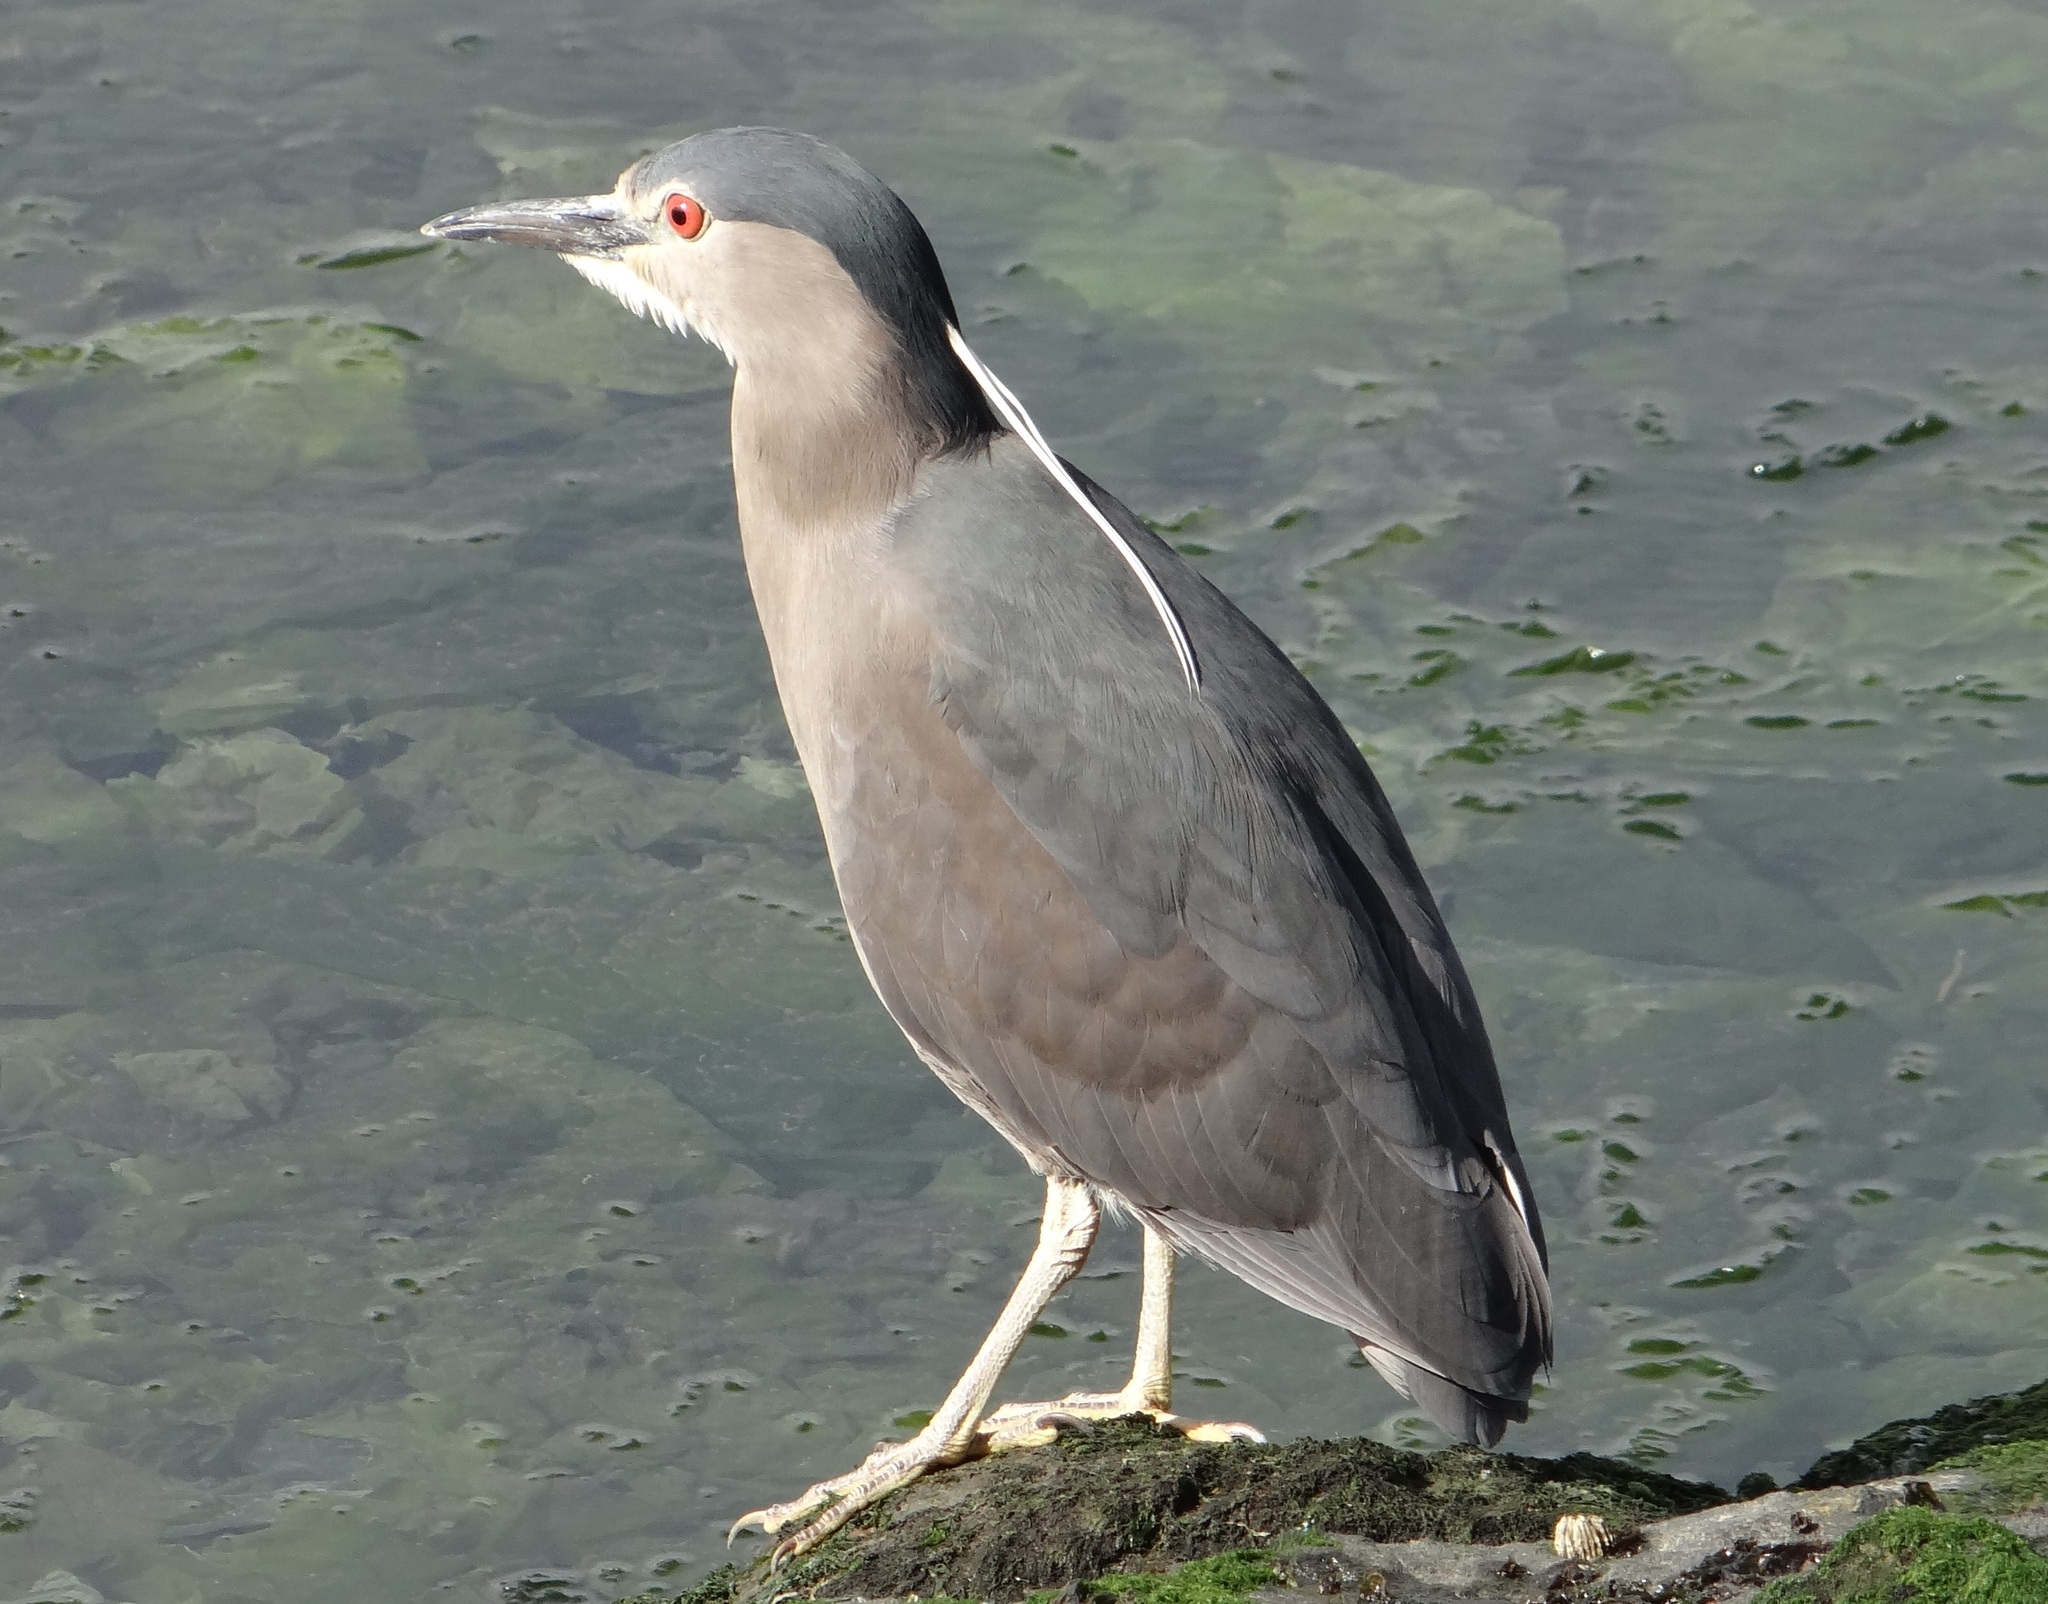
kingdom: Animalia
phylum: Chordata
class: Aves
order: Pelecaniformes
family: Ardeidae
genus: Nycticorax
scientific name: Nycticorax nycticorax
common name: Black-crowned night heron
